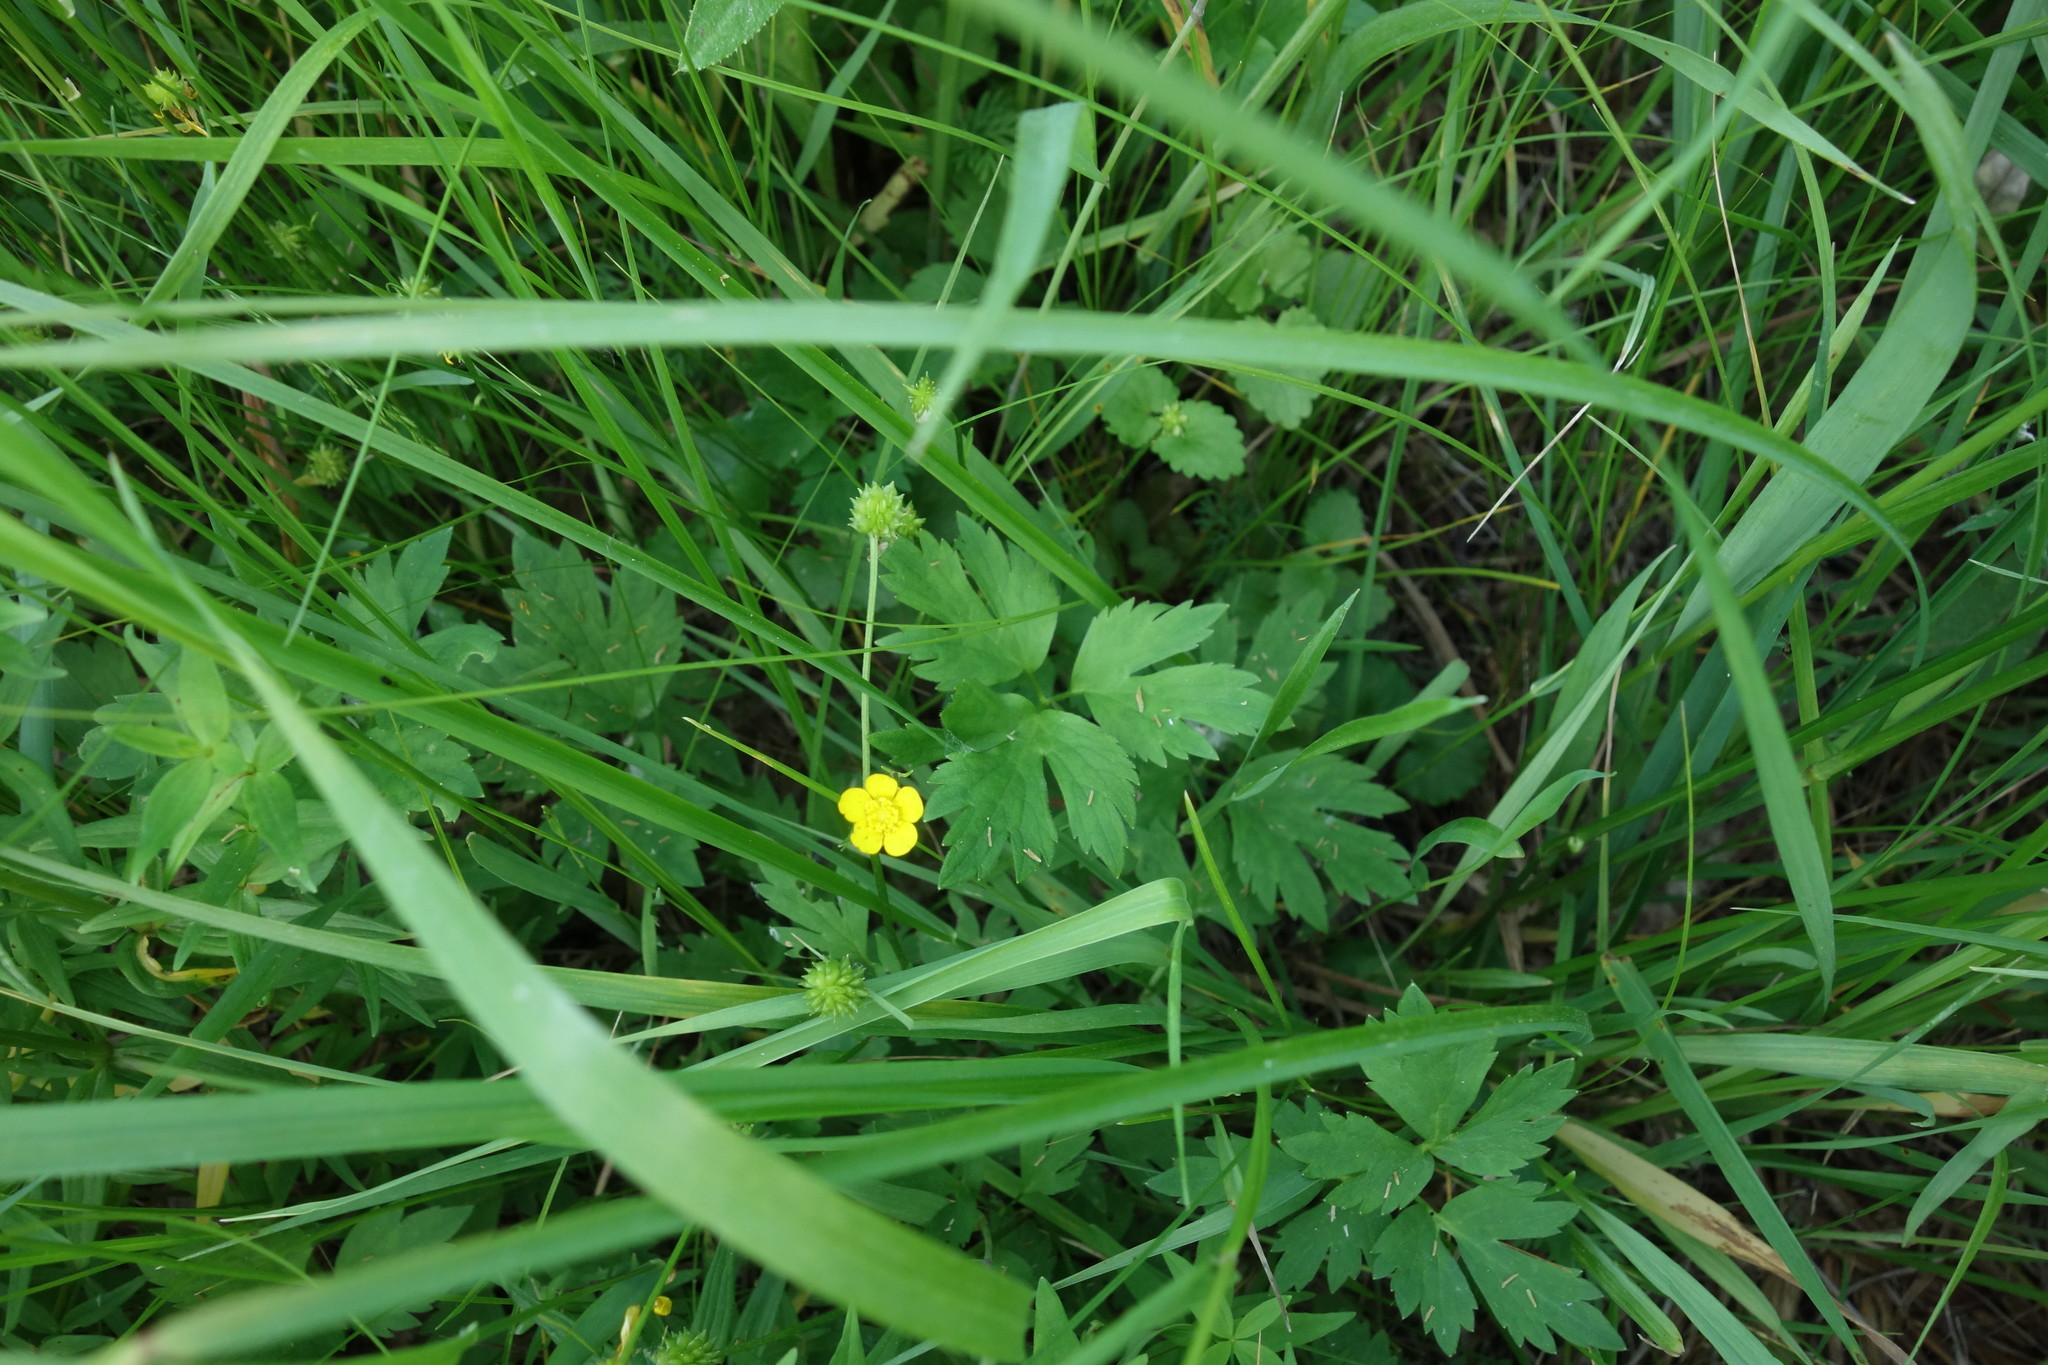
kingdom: Plantae
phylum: Tracheophyta
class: Magnoliopsida
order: Ranunculales
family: Ranunculaceae
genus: Ranunculus
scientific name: Ranunculus repens
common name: Creeping buttercup
